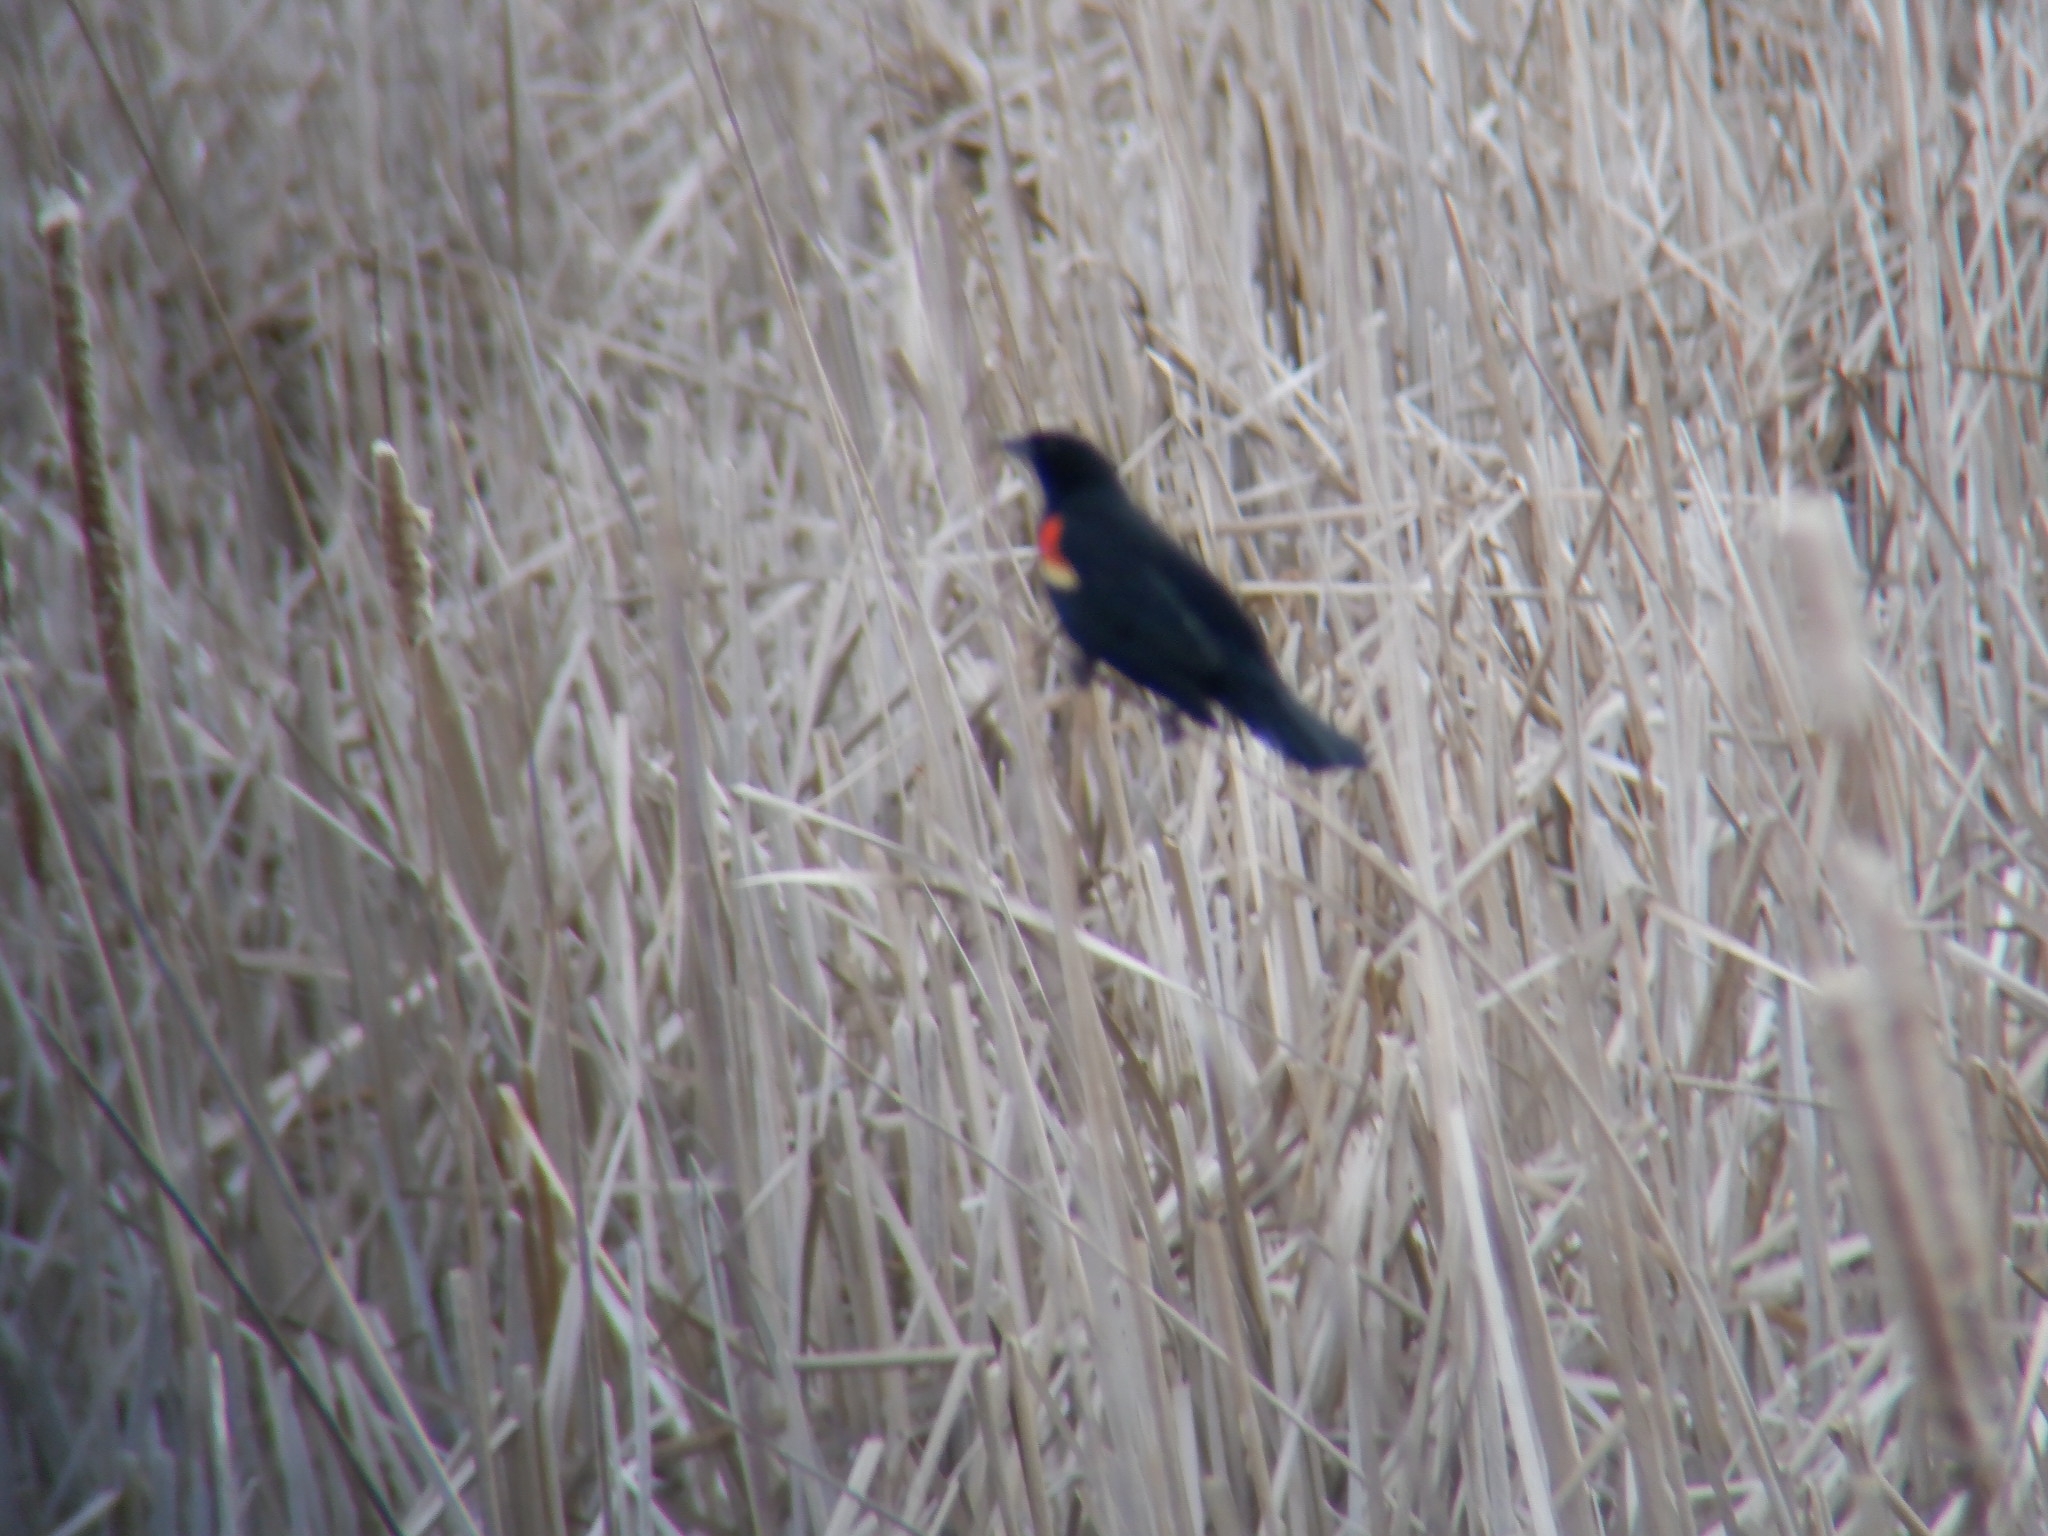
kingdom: Animalia
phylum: Chordata
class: Aves
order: Passeriformes
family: Icteridae
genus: Agelaius
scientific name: Agelaius phoeniceus
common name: Red-winged blackbird
